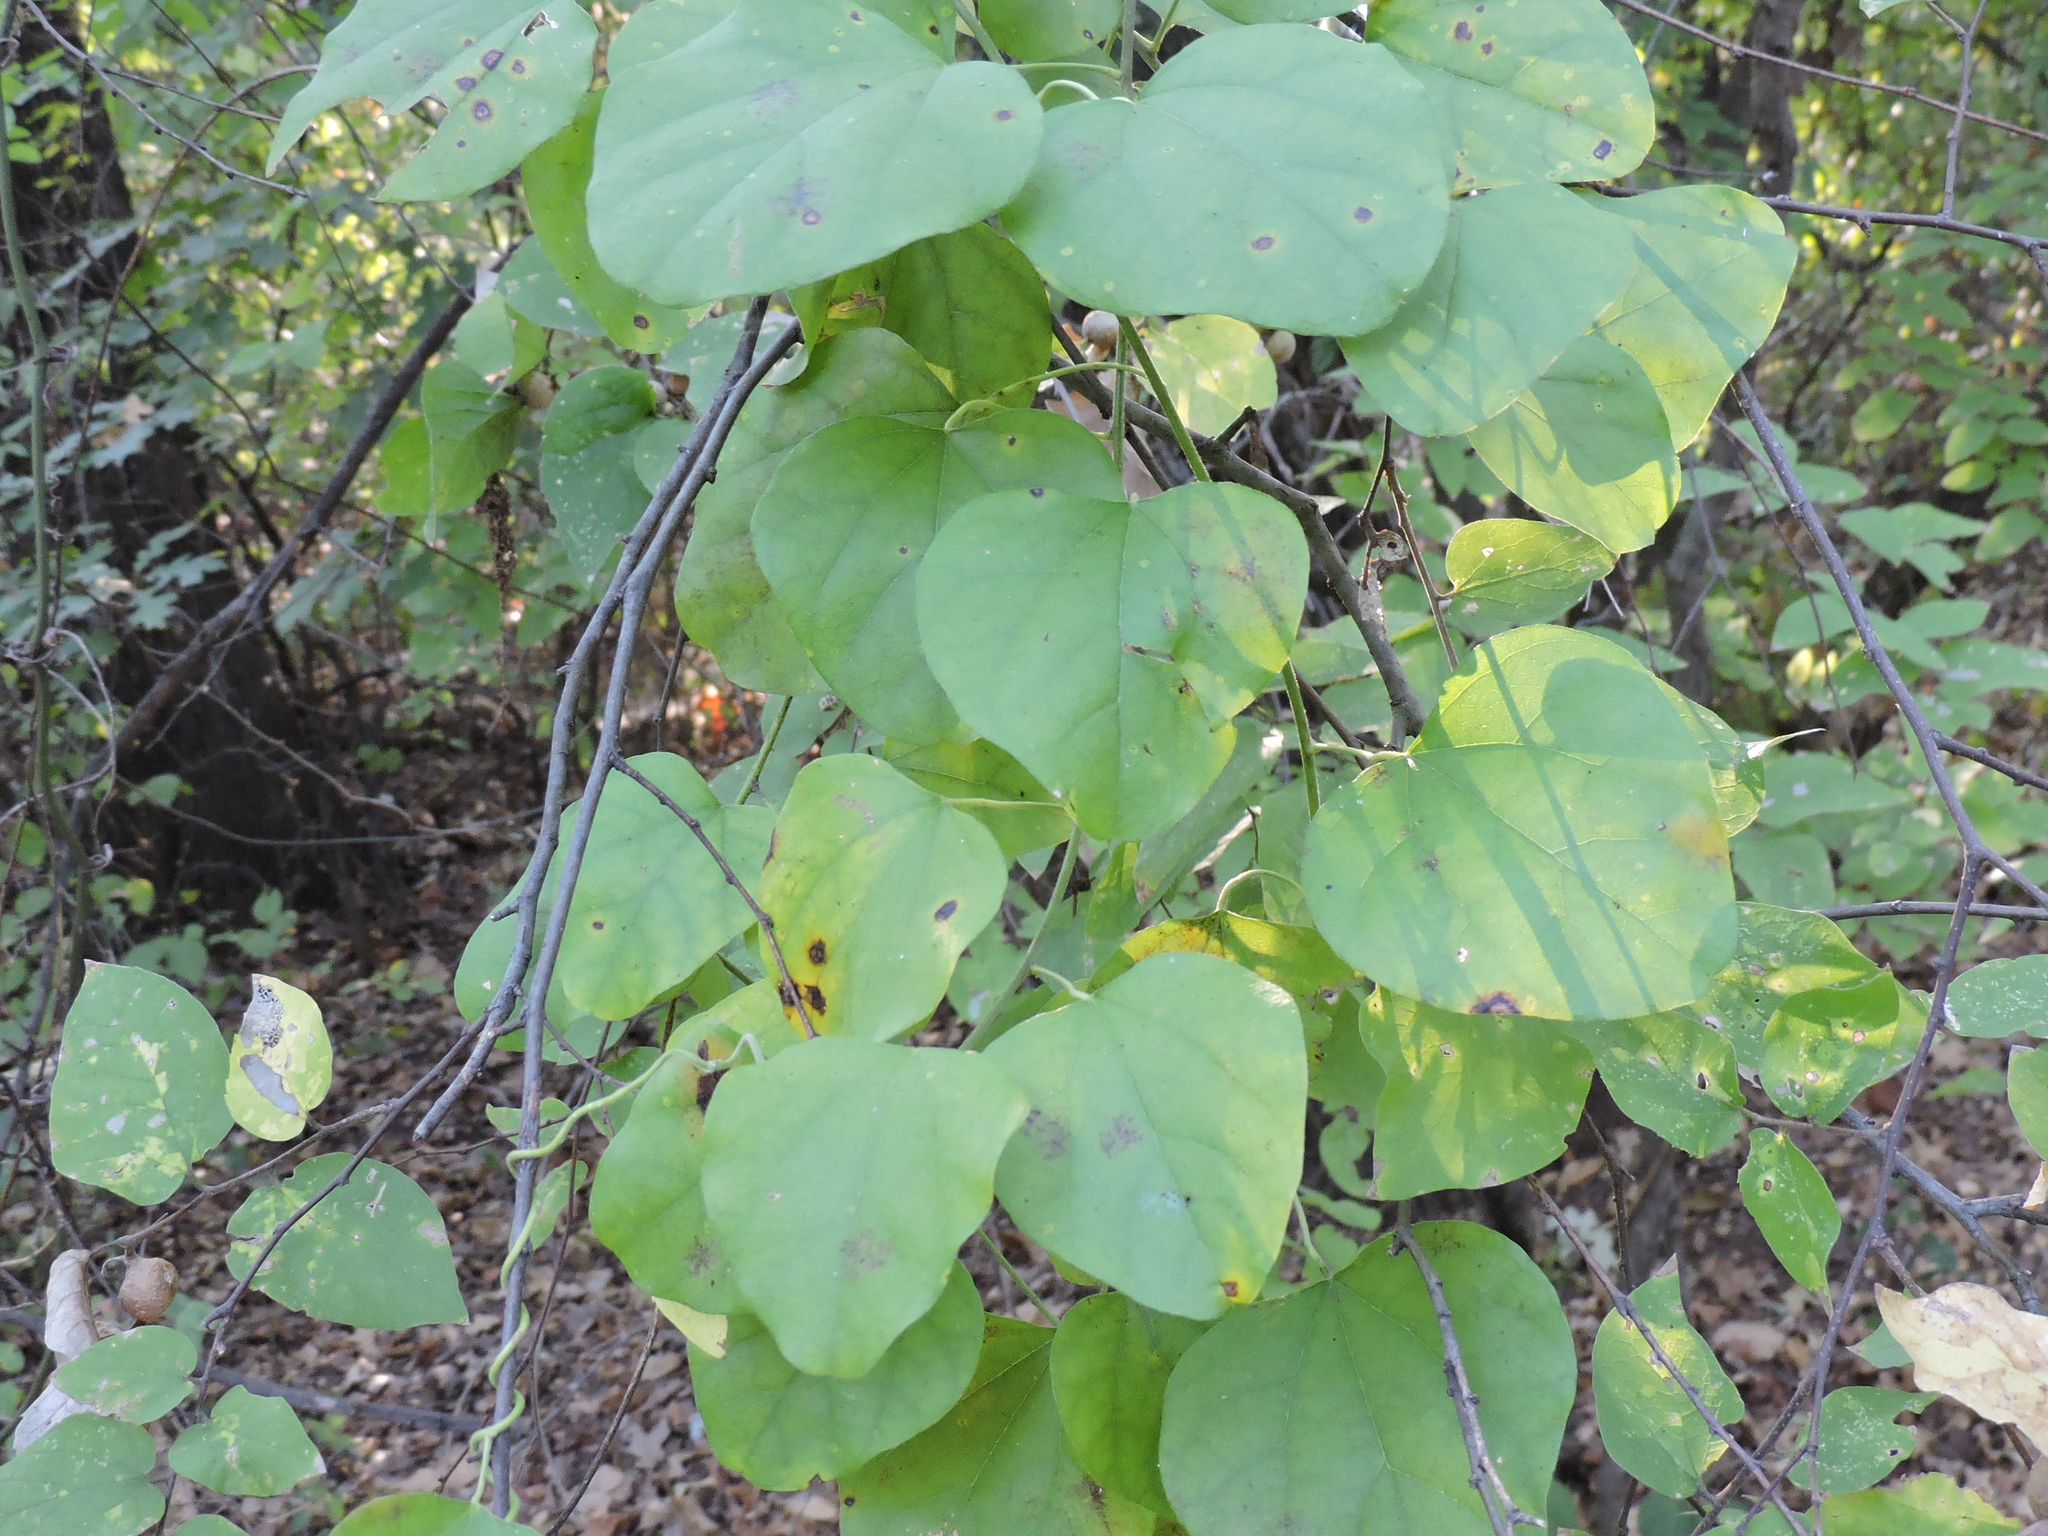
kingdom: Plantae
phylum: Tracheophyta
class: Magnoliopsida
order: Ranunculales
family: Menispermaceae
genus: Cocculus
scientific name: Cocculus carolinus
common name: Carolina moonseed
